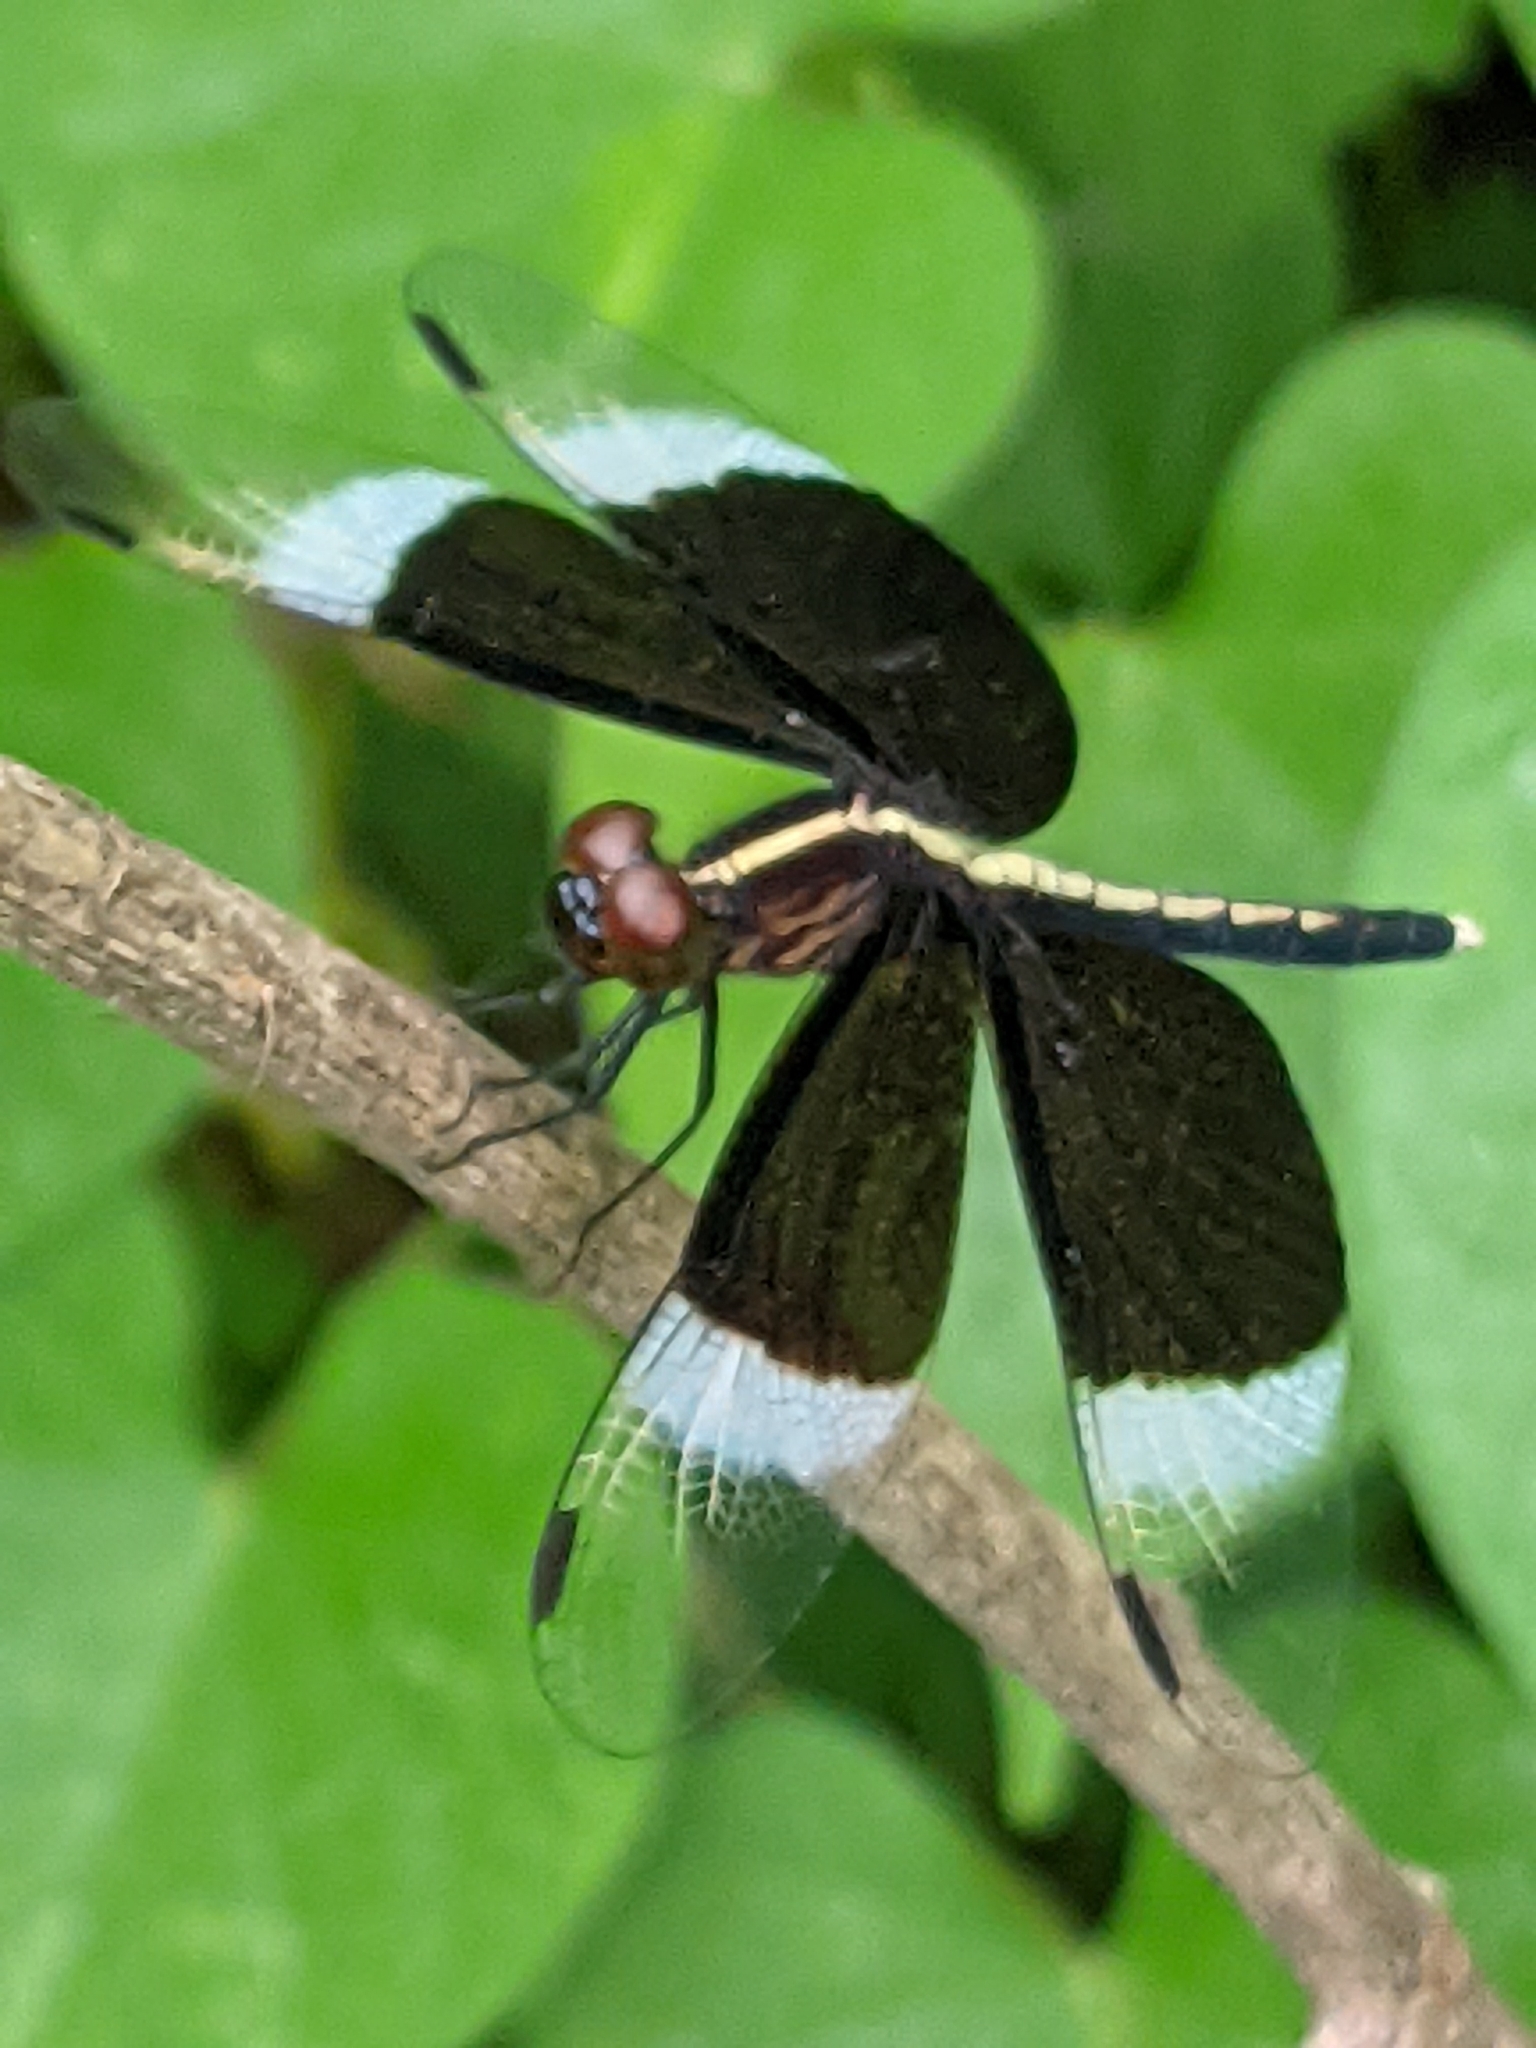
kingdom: Animalia
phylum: Arthropoda
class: Insecta
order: Odonata
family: Libellulidae
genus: Neurothemis
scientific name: Neurothemis tullia
